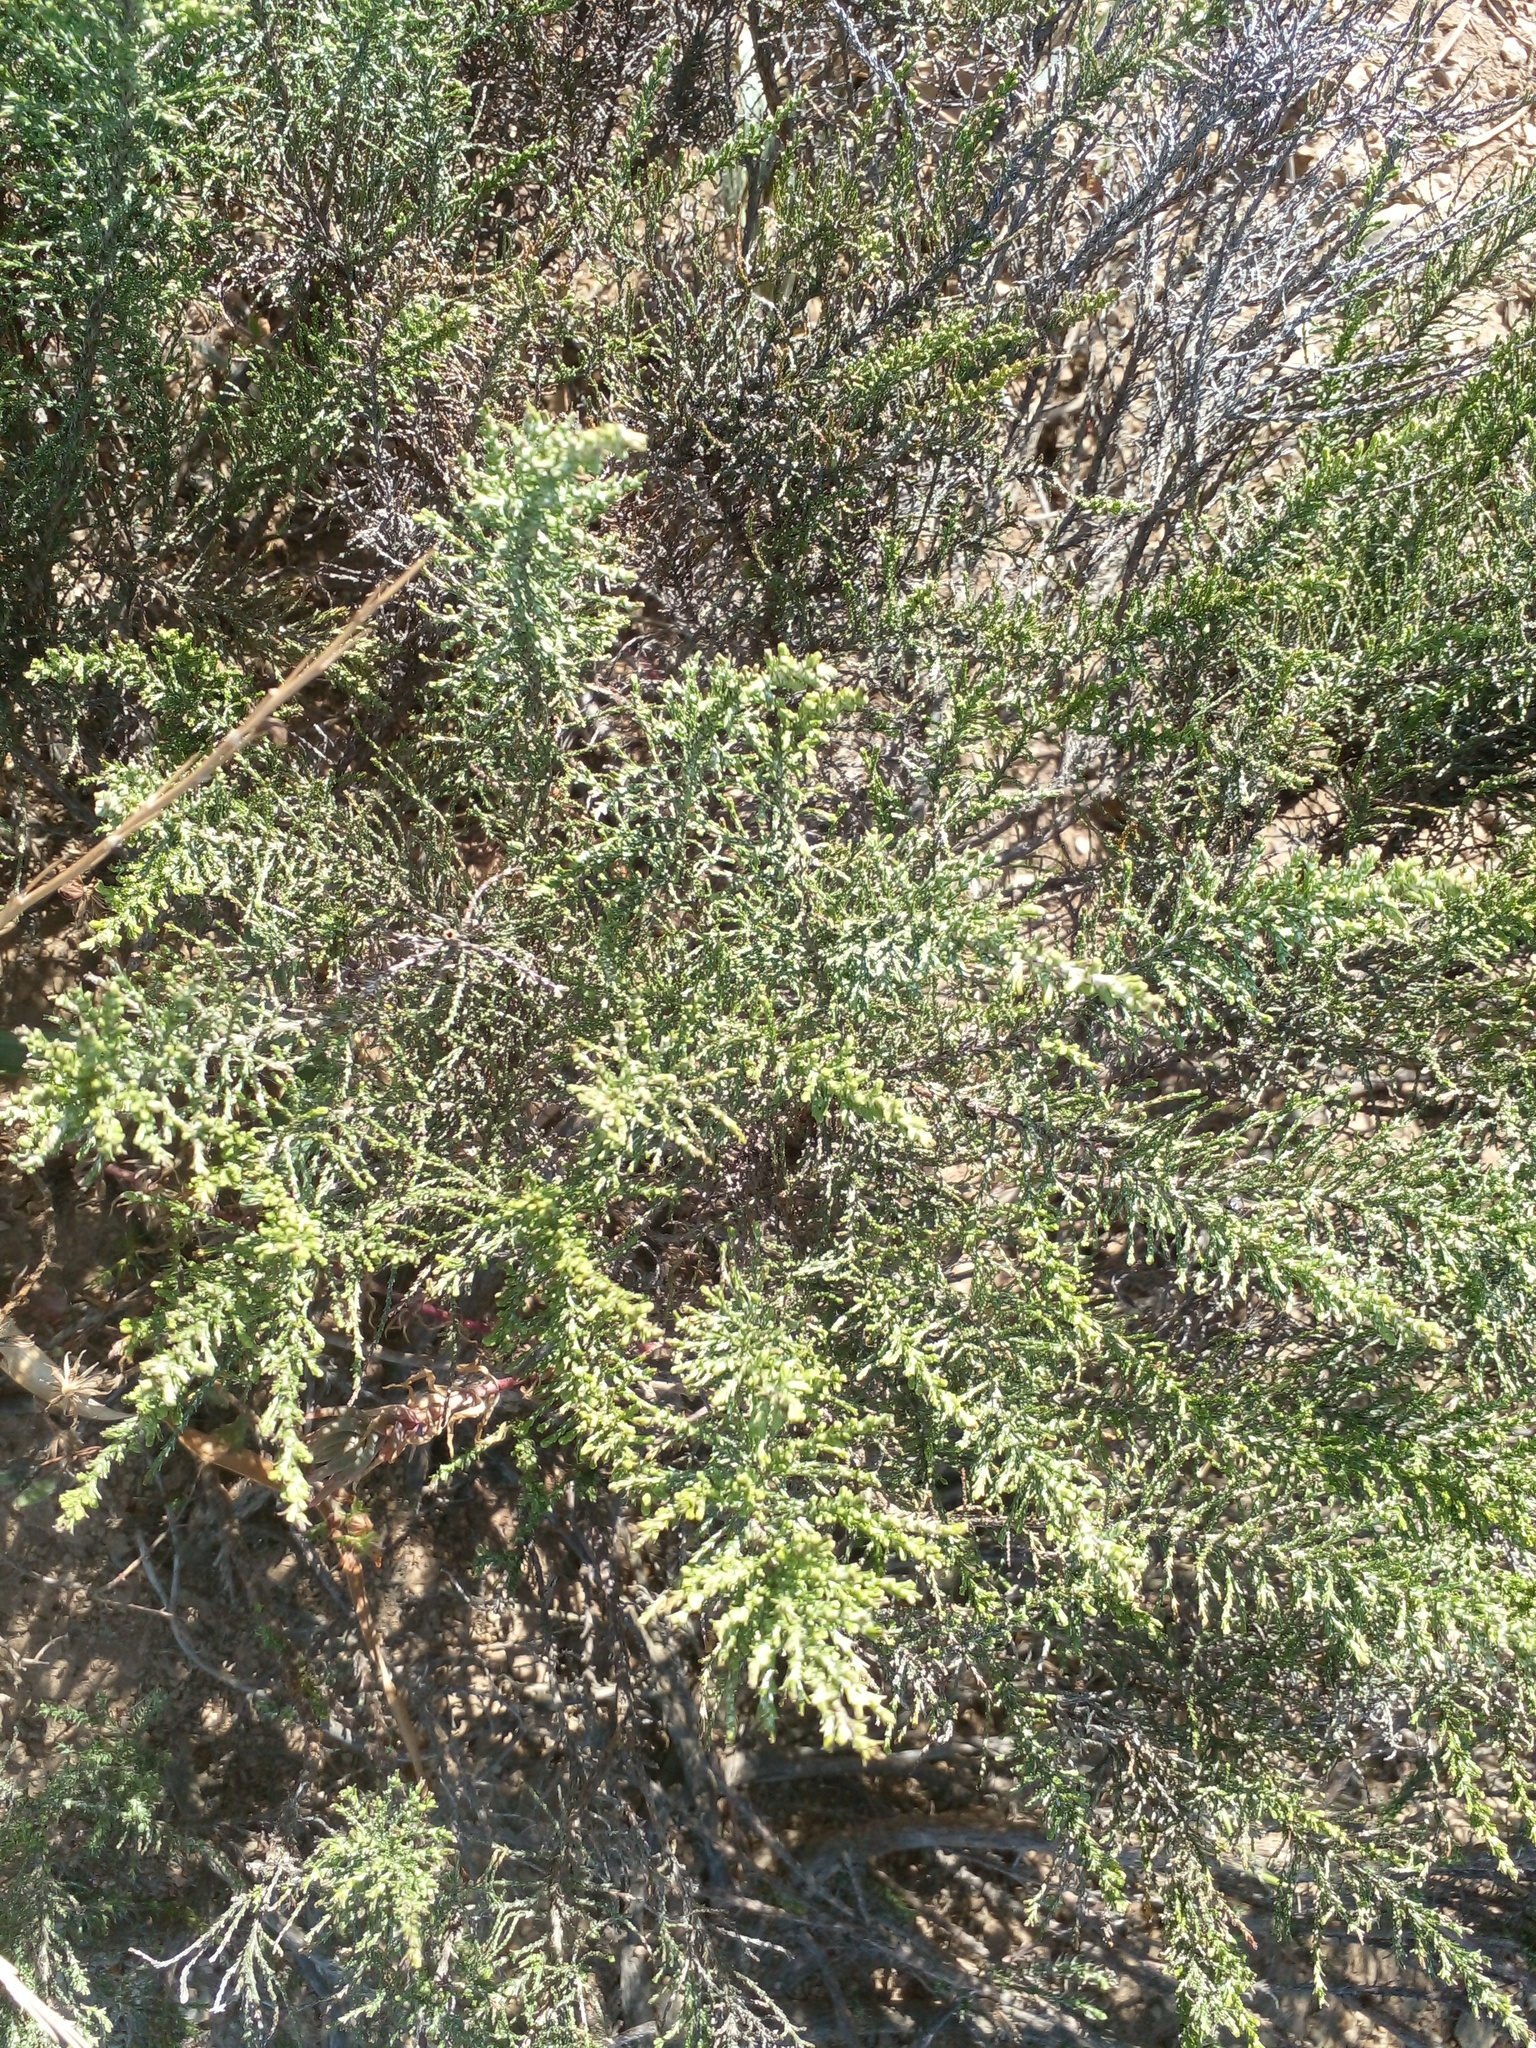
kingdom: Plantae
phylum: Tracheophyta
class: Magnoliopsida
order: Asterales
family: Asteraceae
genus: Dicerothamnus
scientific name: Dicerothamnus rhinocerotis
